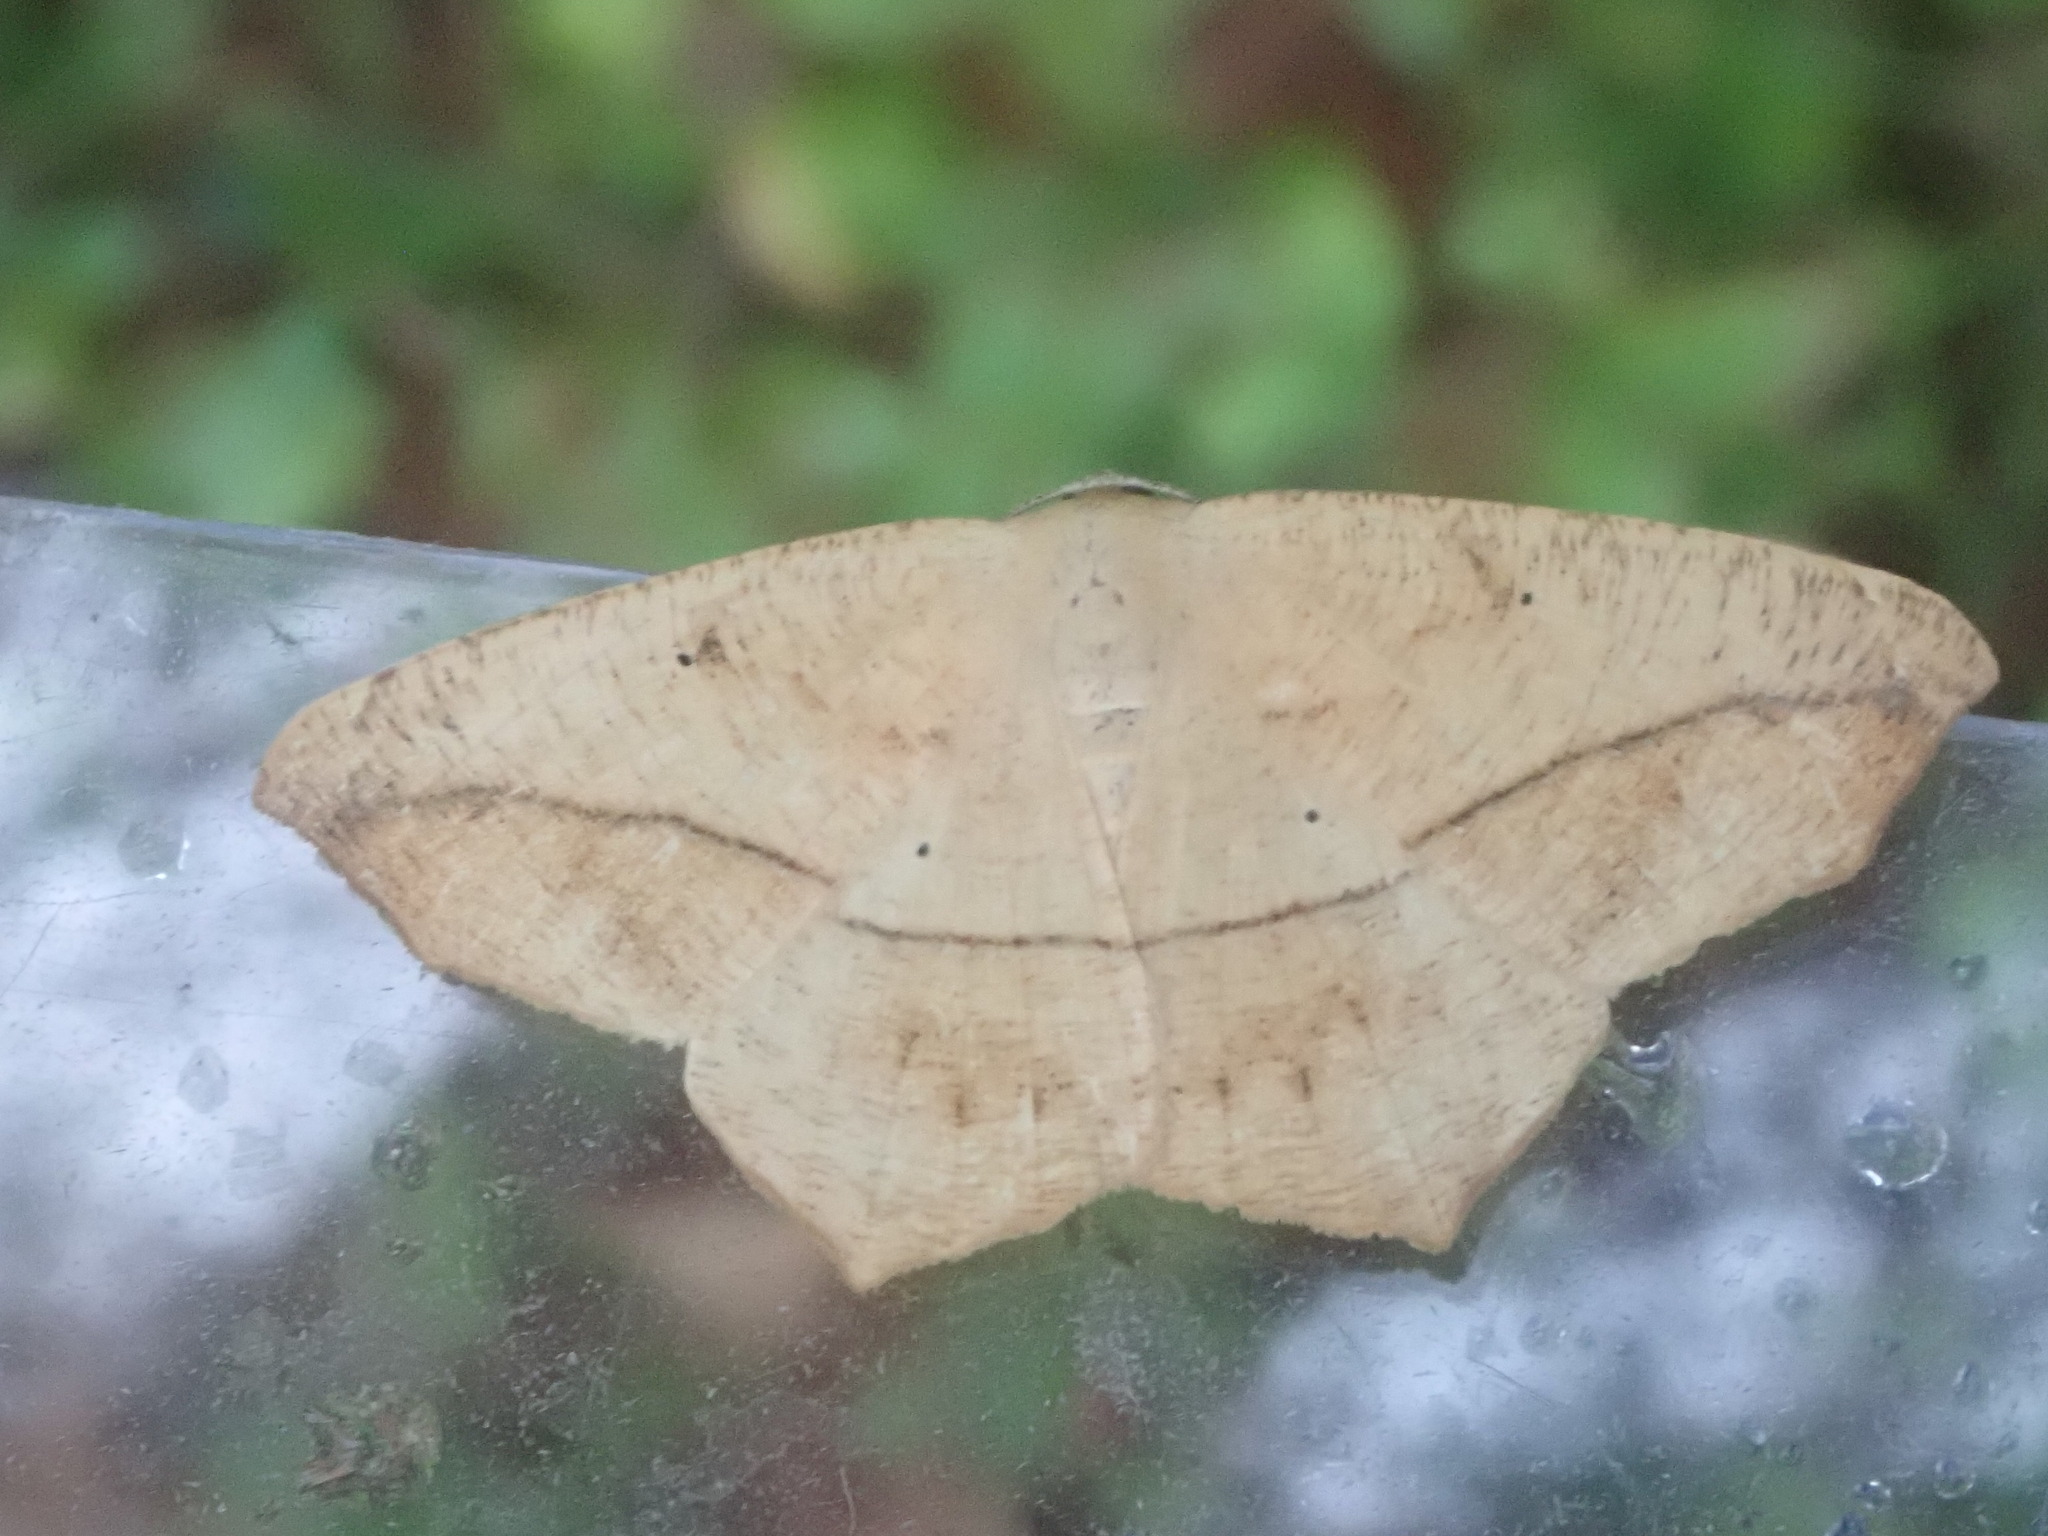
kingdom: Animalia
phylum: Arthropoda
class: Insecta
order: Lepidoptera
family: Geometridae
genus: Prochoerodes
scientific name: Prochoerodes lineola
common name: Large maple spanworm
